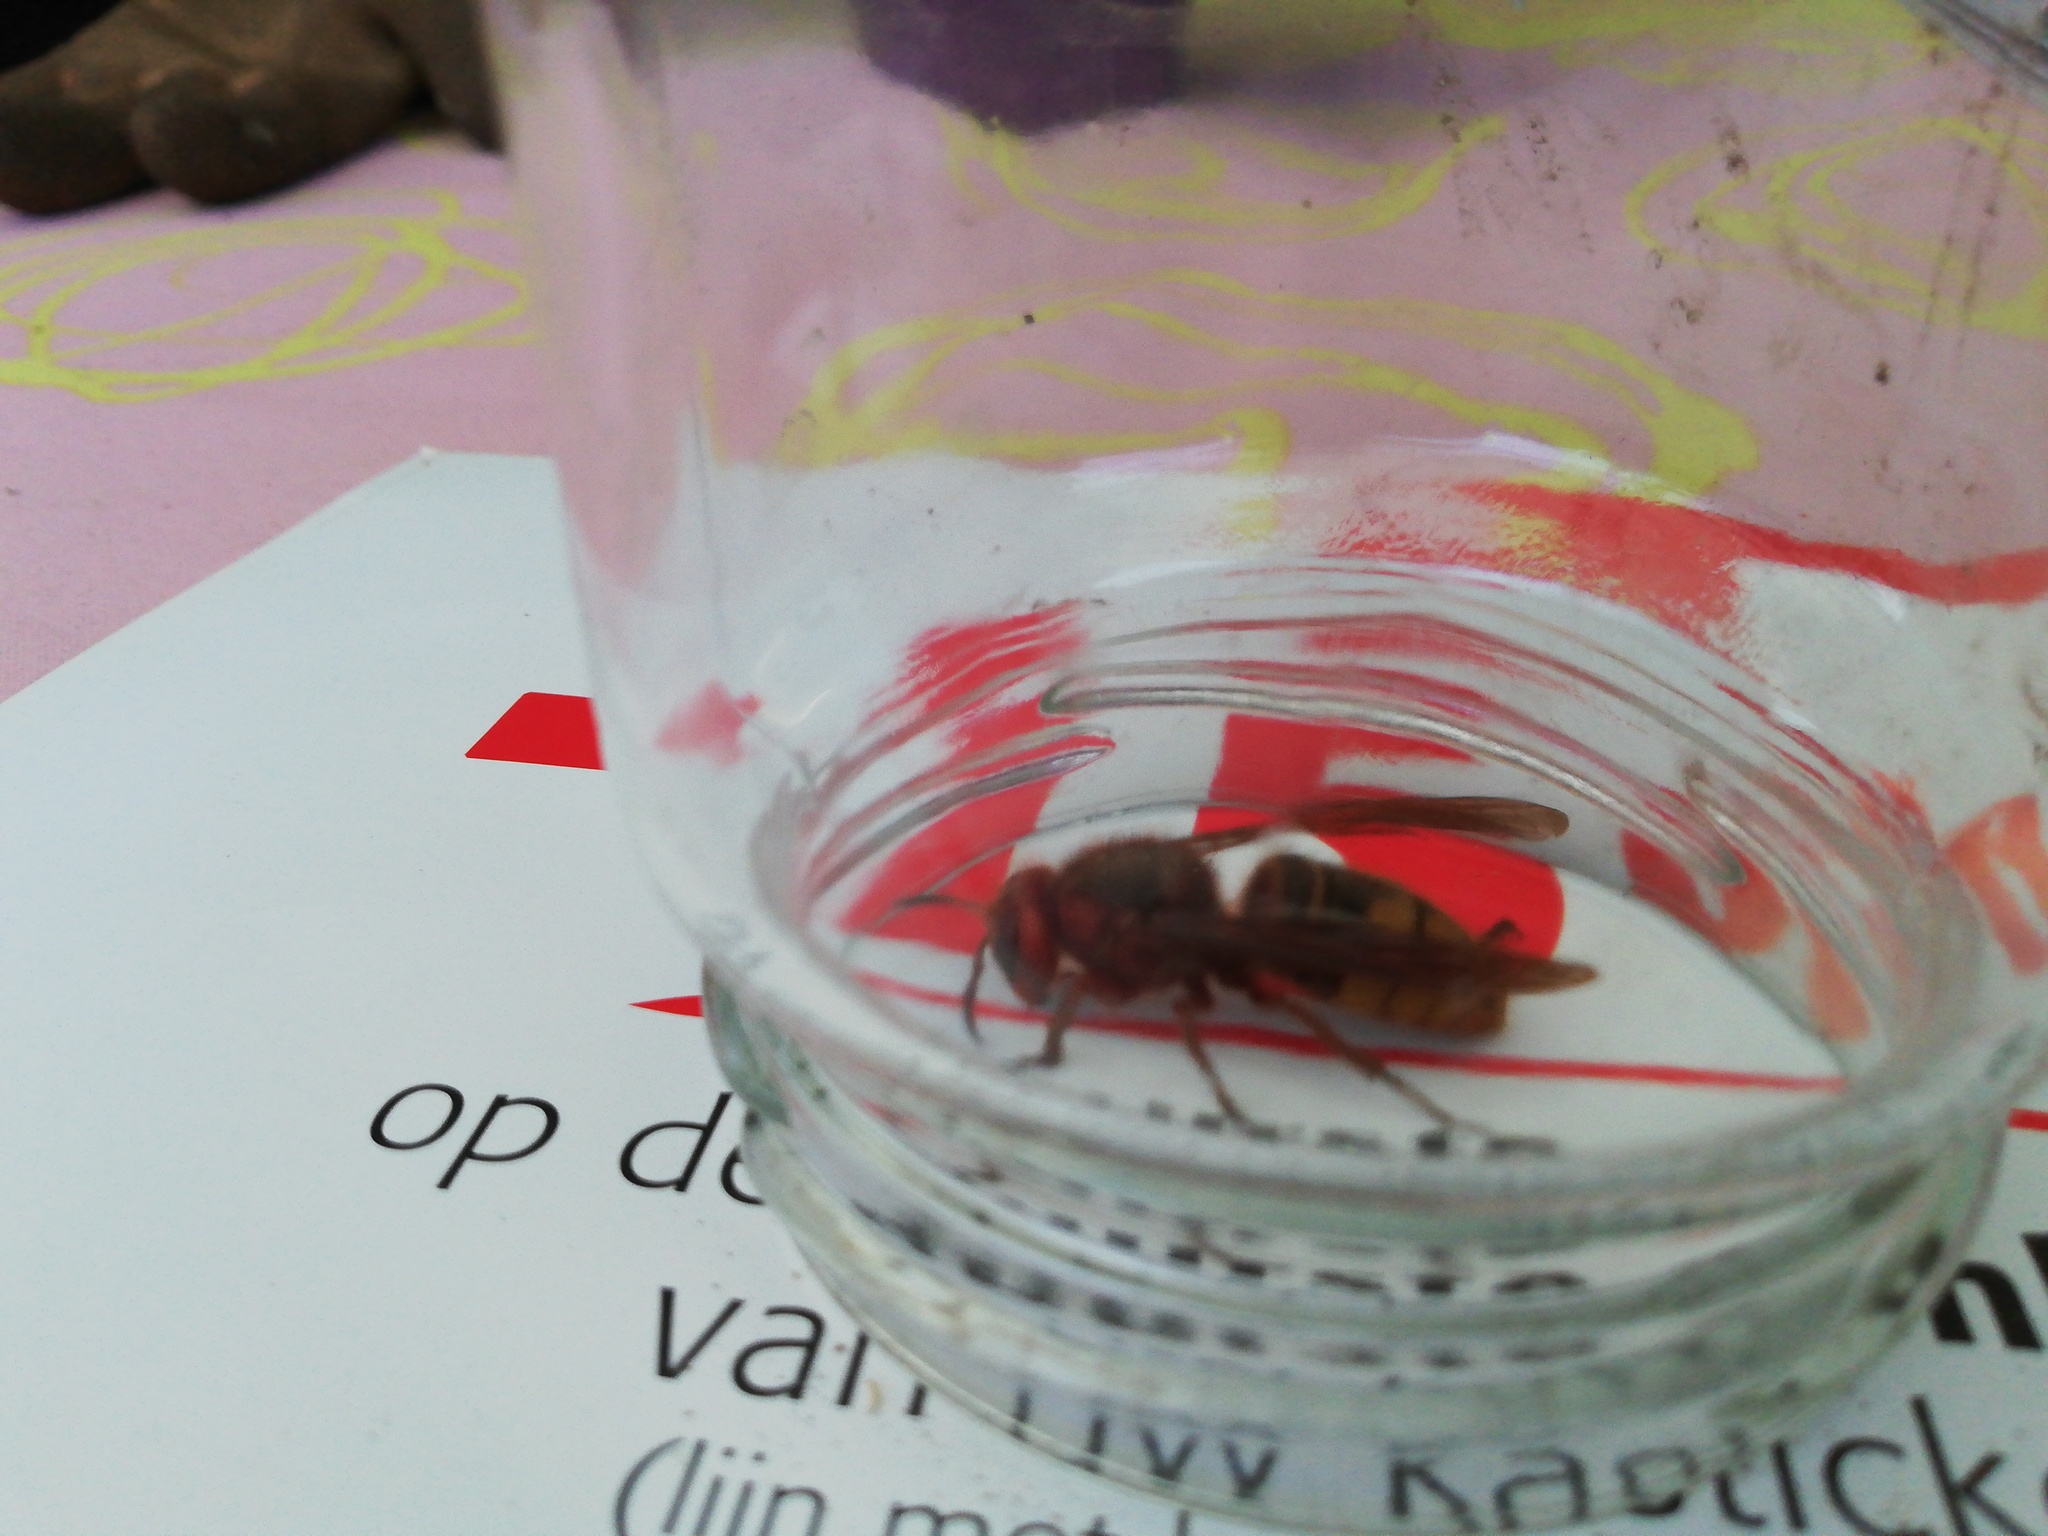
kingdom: Animalia
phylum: Arthropoda
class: Insecta
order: Hymenoptera
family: Vespidae
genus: Vespa
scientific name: Vespa crabro
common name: Hornet
